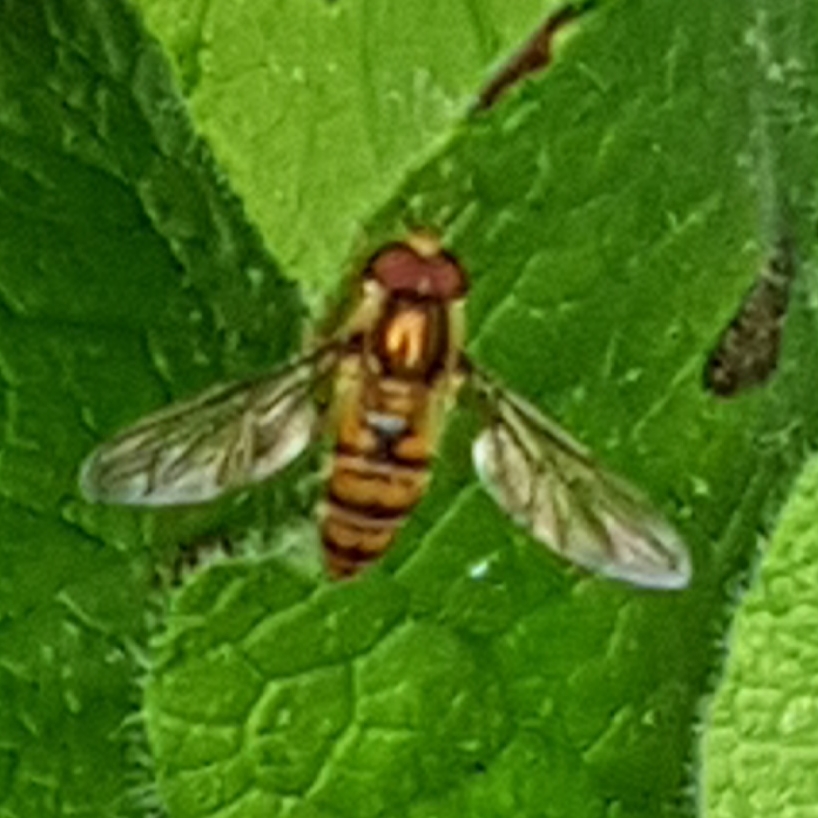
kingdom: Animalia
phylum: Arthropoda
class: Insecta
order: Diptera
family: Syrphidae
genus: Episyrphus
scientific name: Episyrphus balteatus
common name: Marmalade hoverfly
